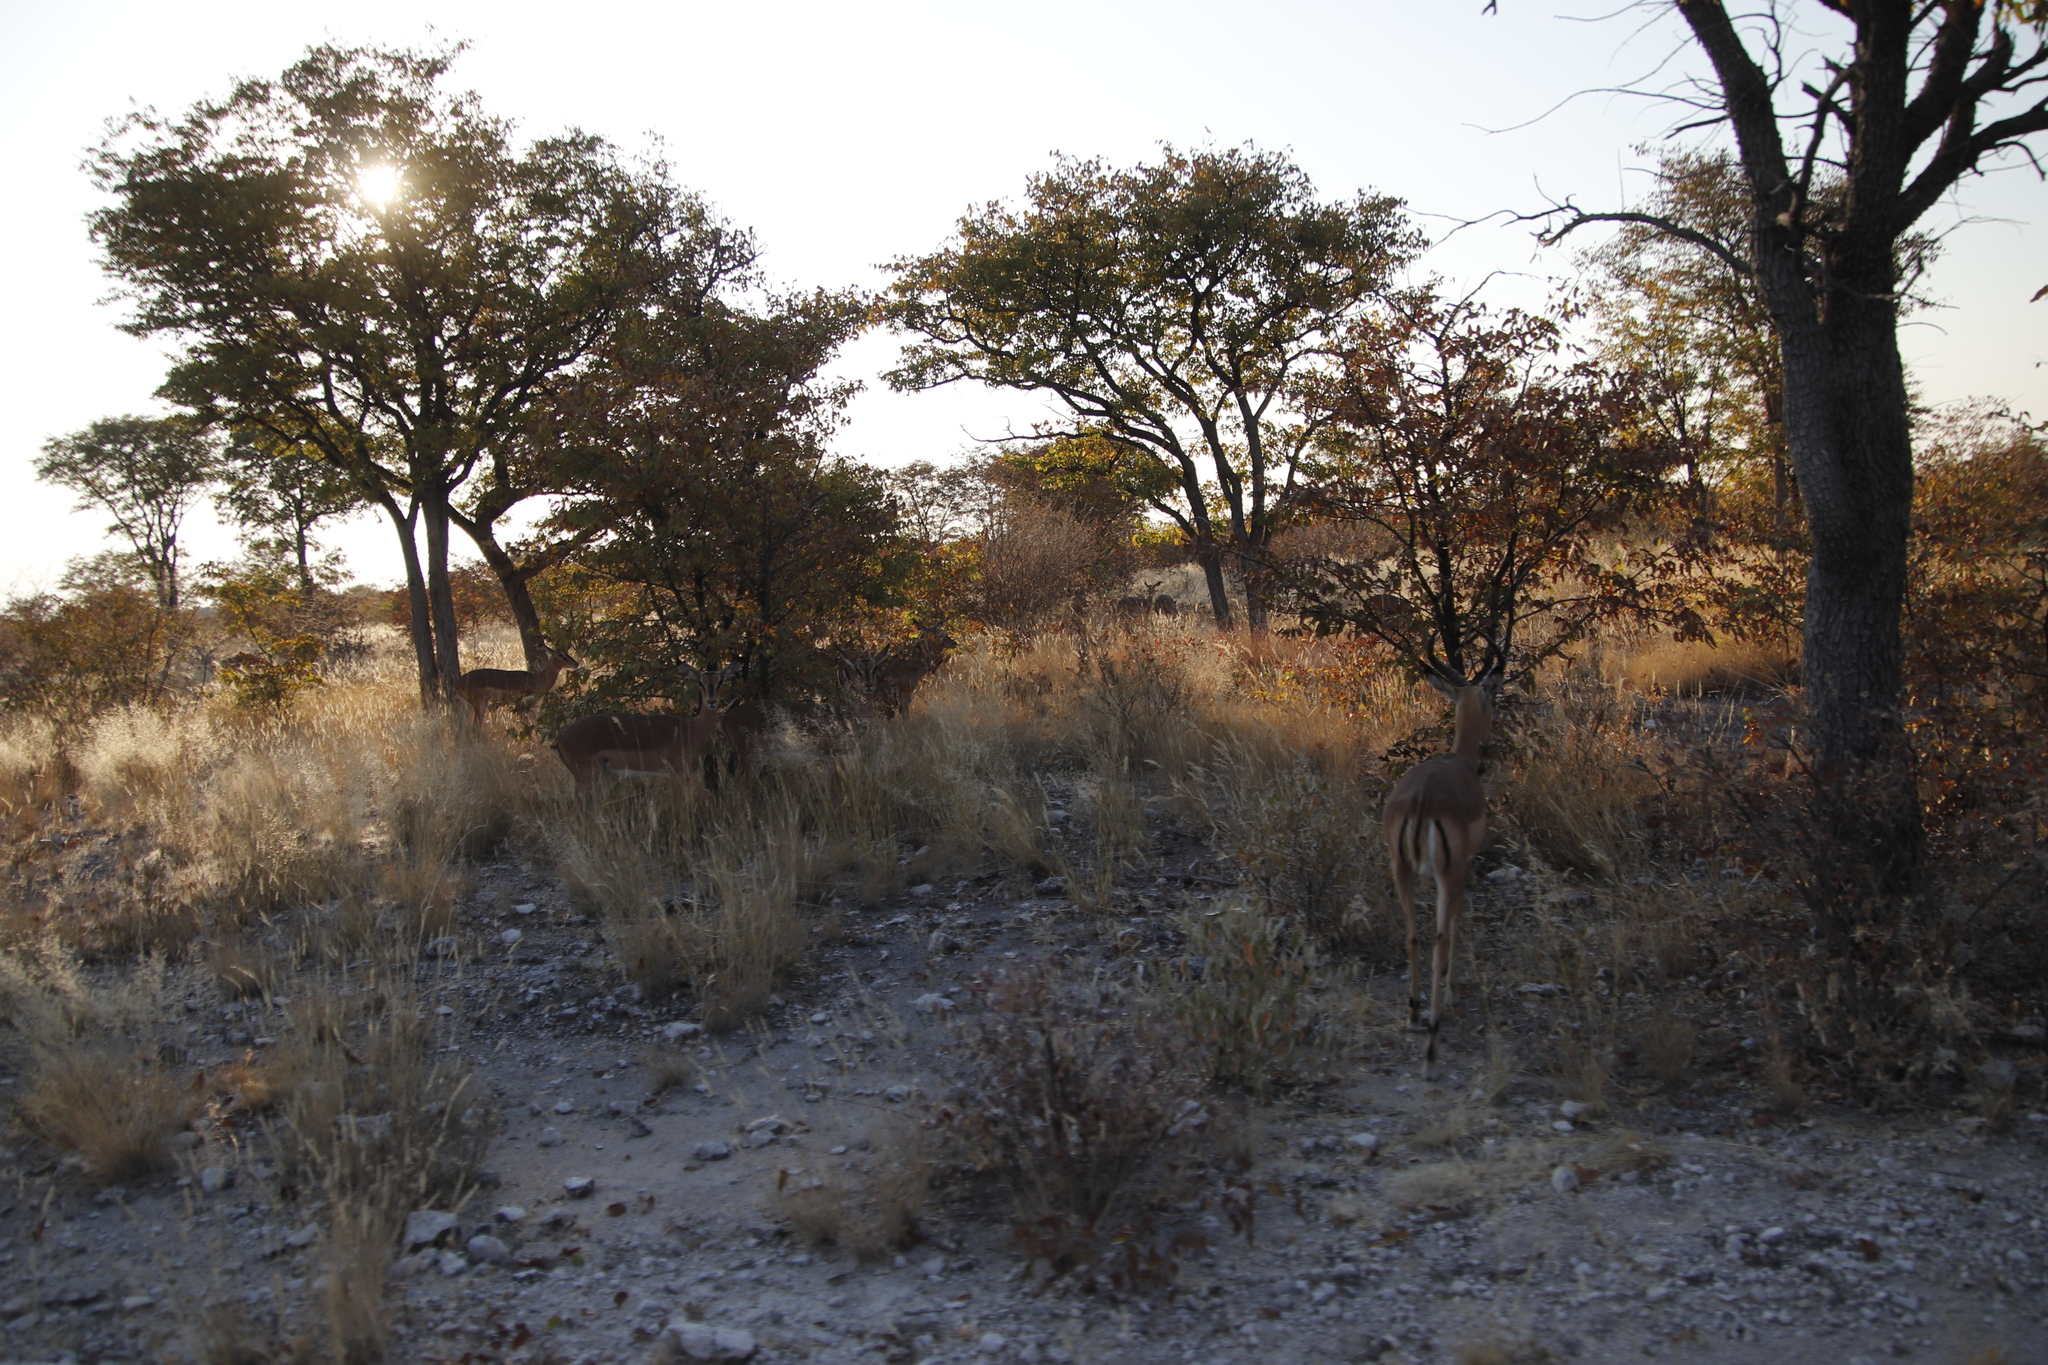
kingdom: Animalia
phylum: Chordata
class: Mammalia
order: Artiodactyla
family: Bovidae
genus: Aepyceros
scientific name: Aepyceros melampus
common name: Impala
